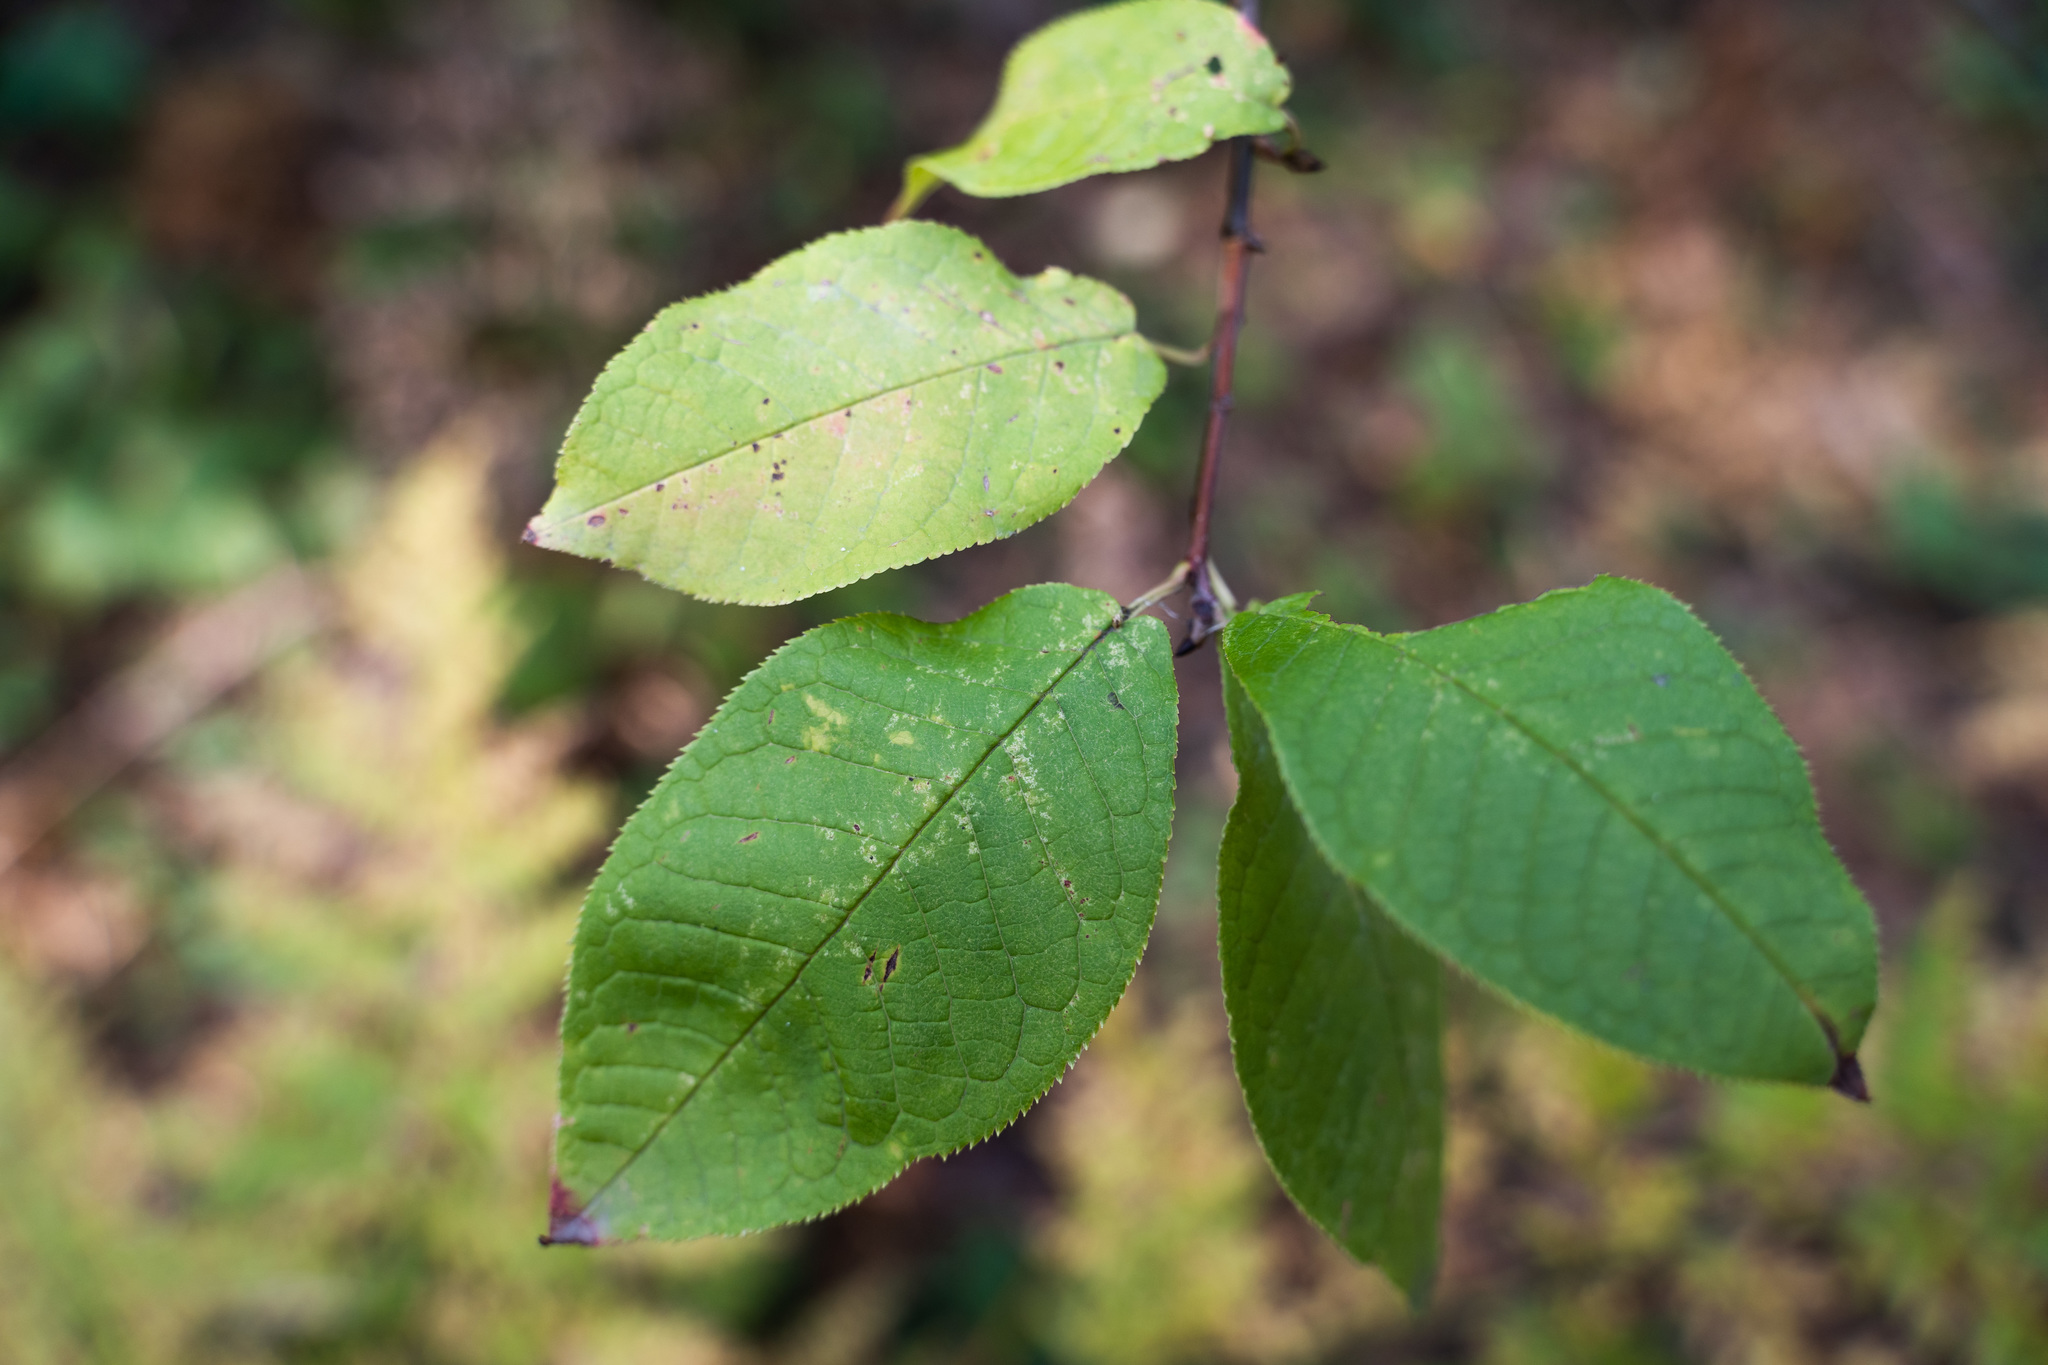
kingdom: Plantae
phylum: Tracheophyta
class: Magnoliopsida
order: Rosales
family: Rosaceae
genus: Prunus
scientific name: Prunus padus
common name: Bird cherry
